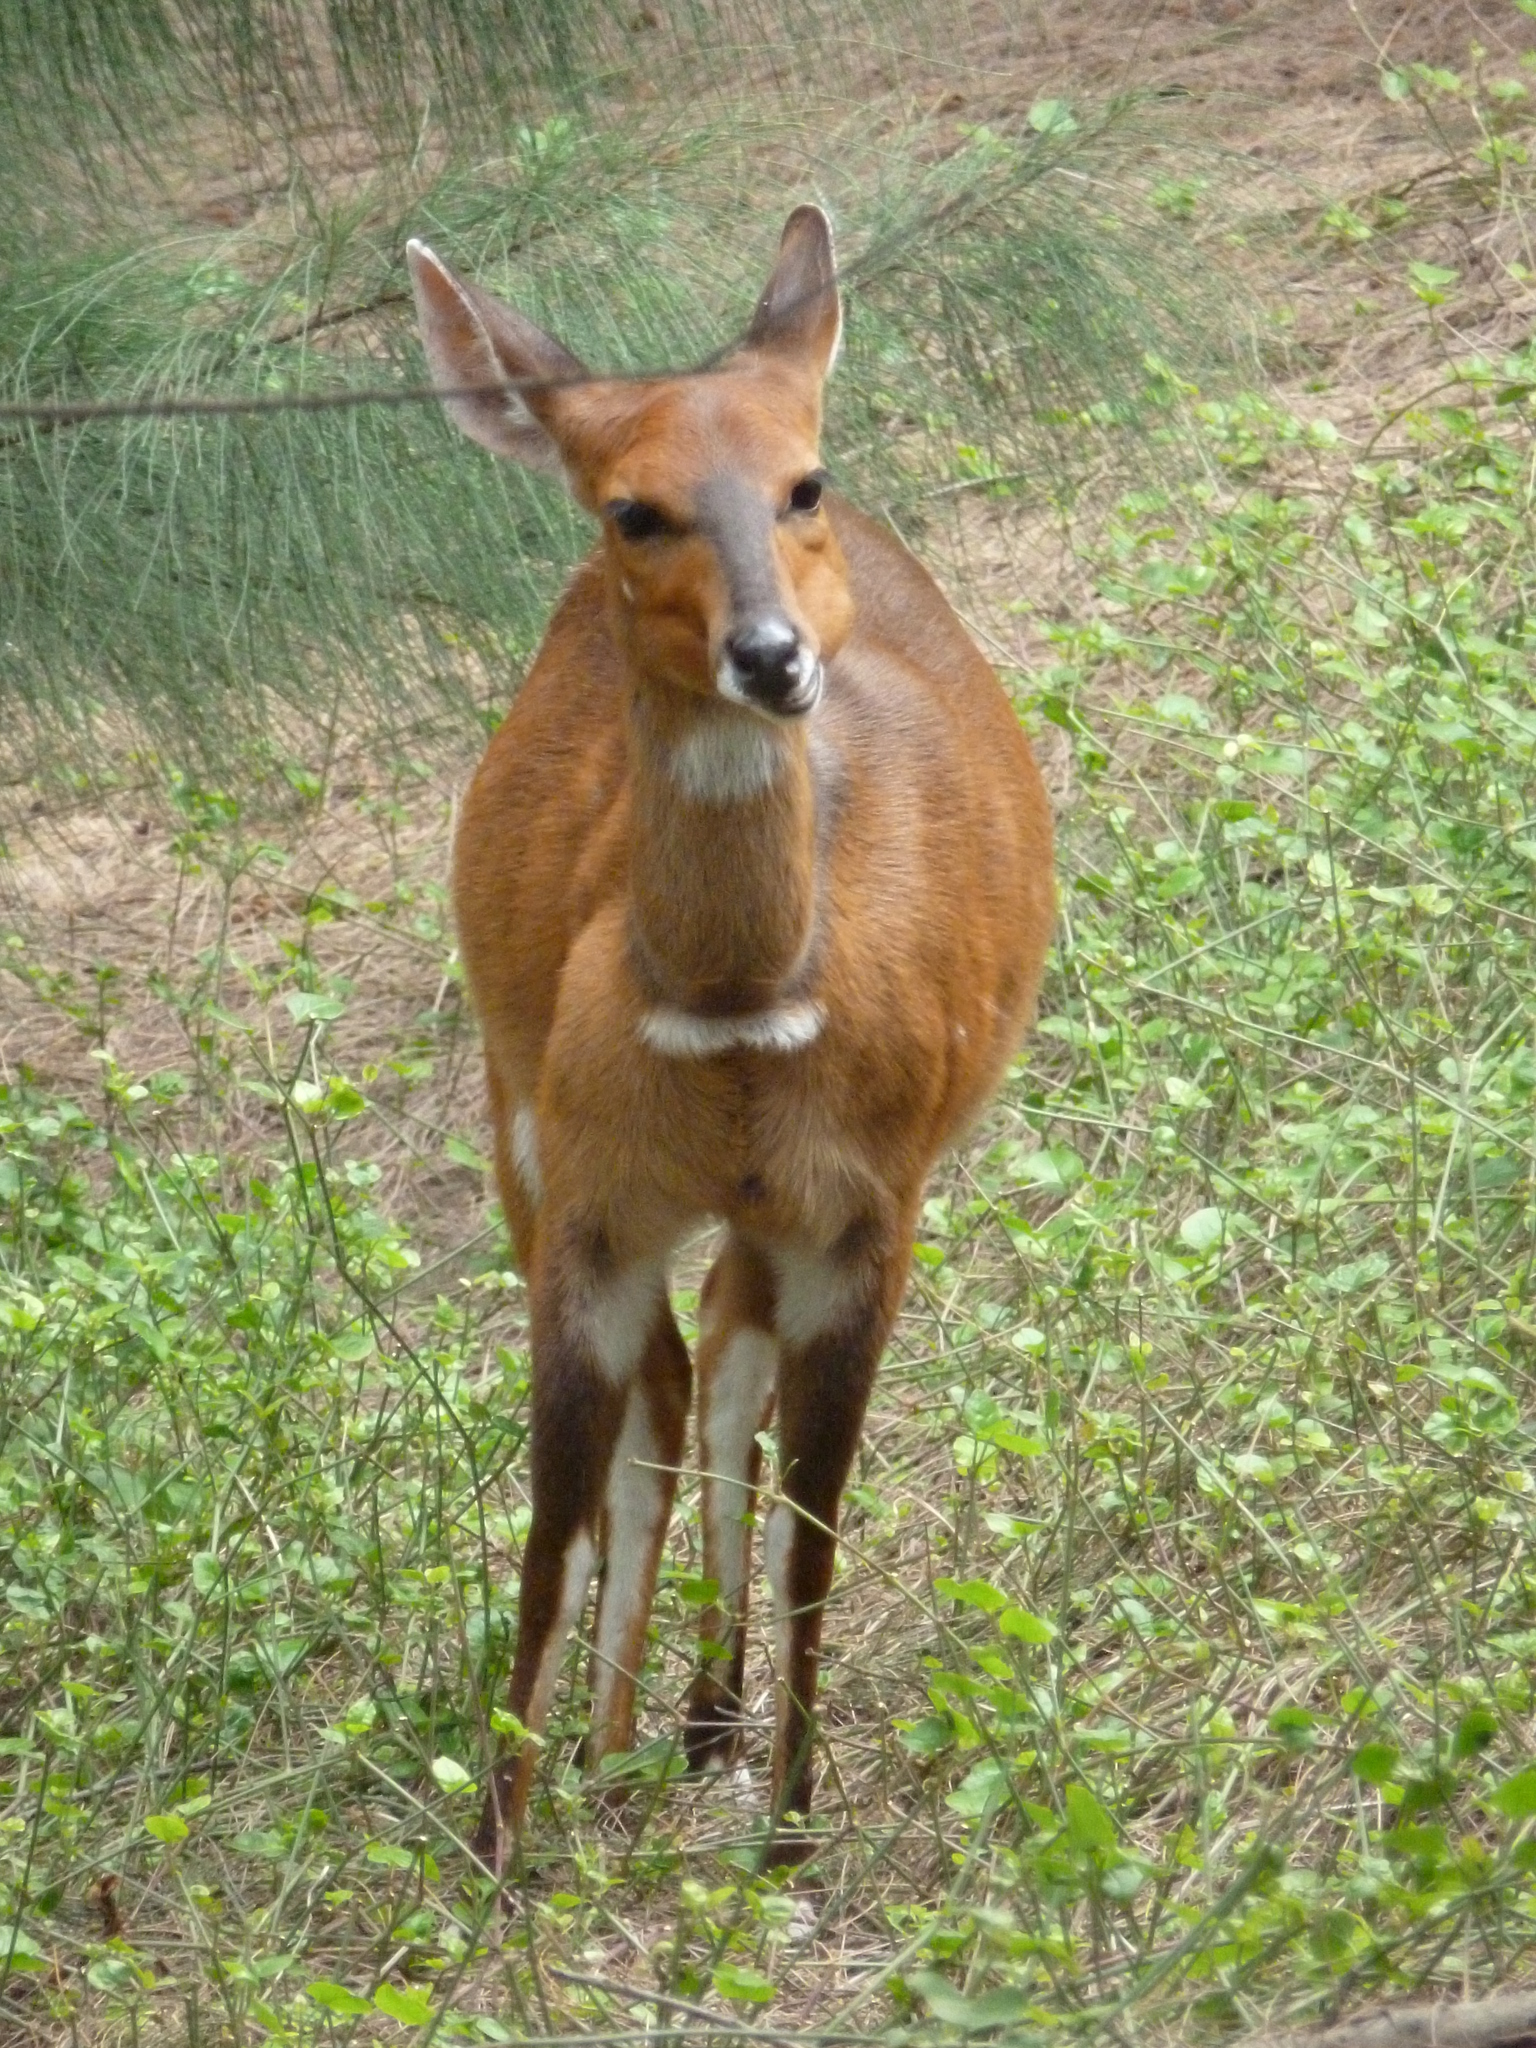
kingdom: Animalia
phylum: Chordata
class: Mammalia
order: Artiodactyla
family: Bovidae
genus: Tragelaphus
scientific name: Tragelaphus scriptus
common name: Bushbuck
